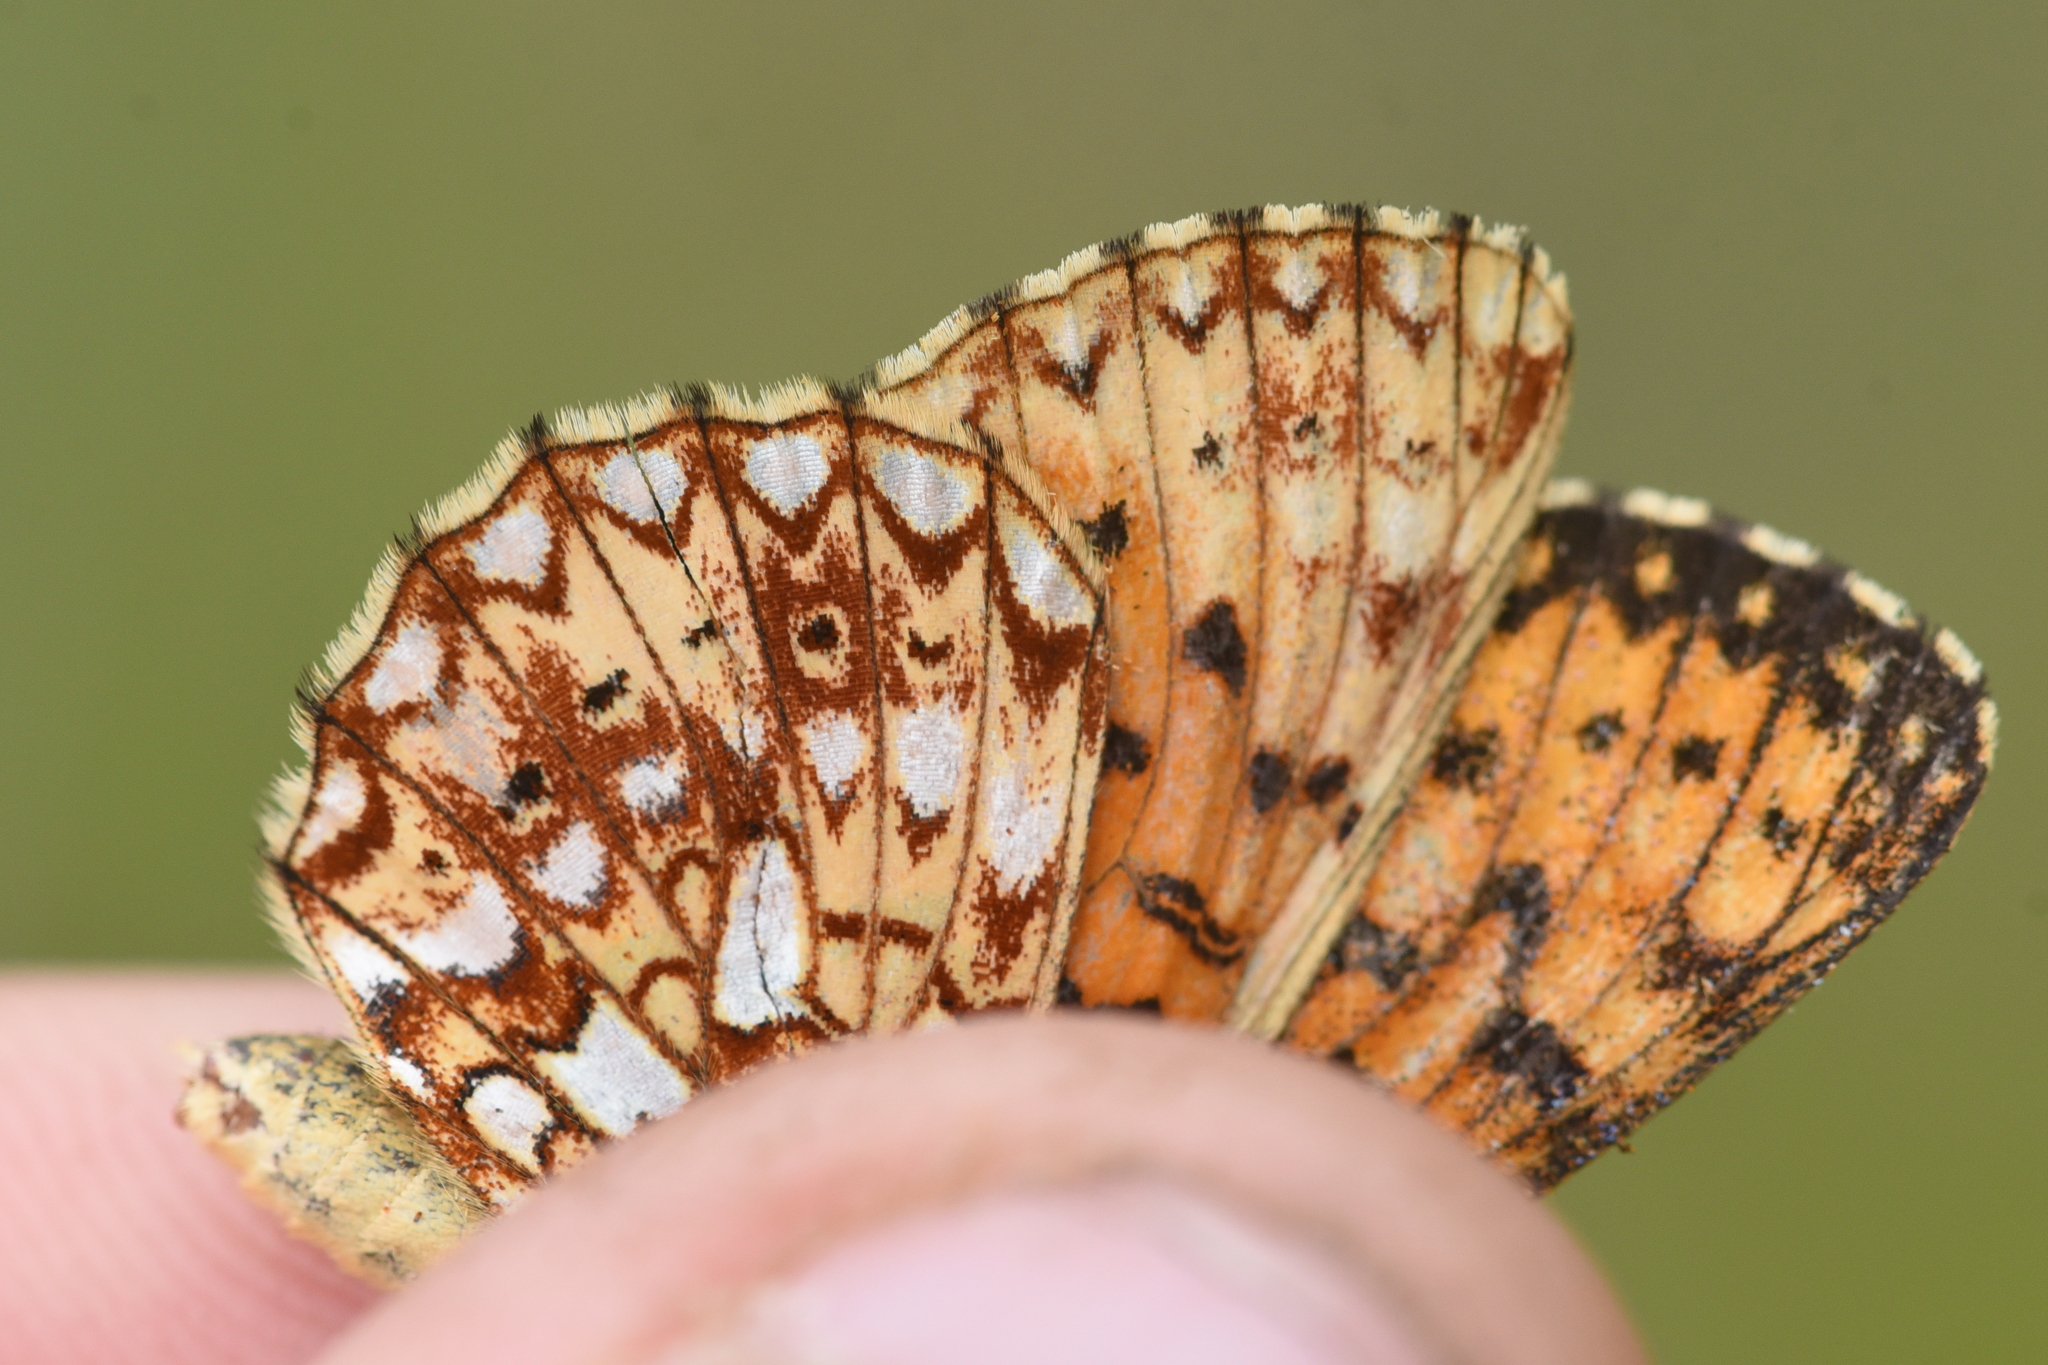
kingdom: Animalia
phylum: Arthropoda
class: Insecta
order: Lepidoptera
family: Nymphalidae
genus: Boloria
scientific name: Boloria
